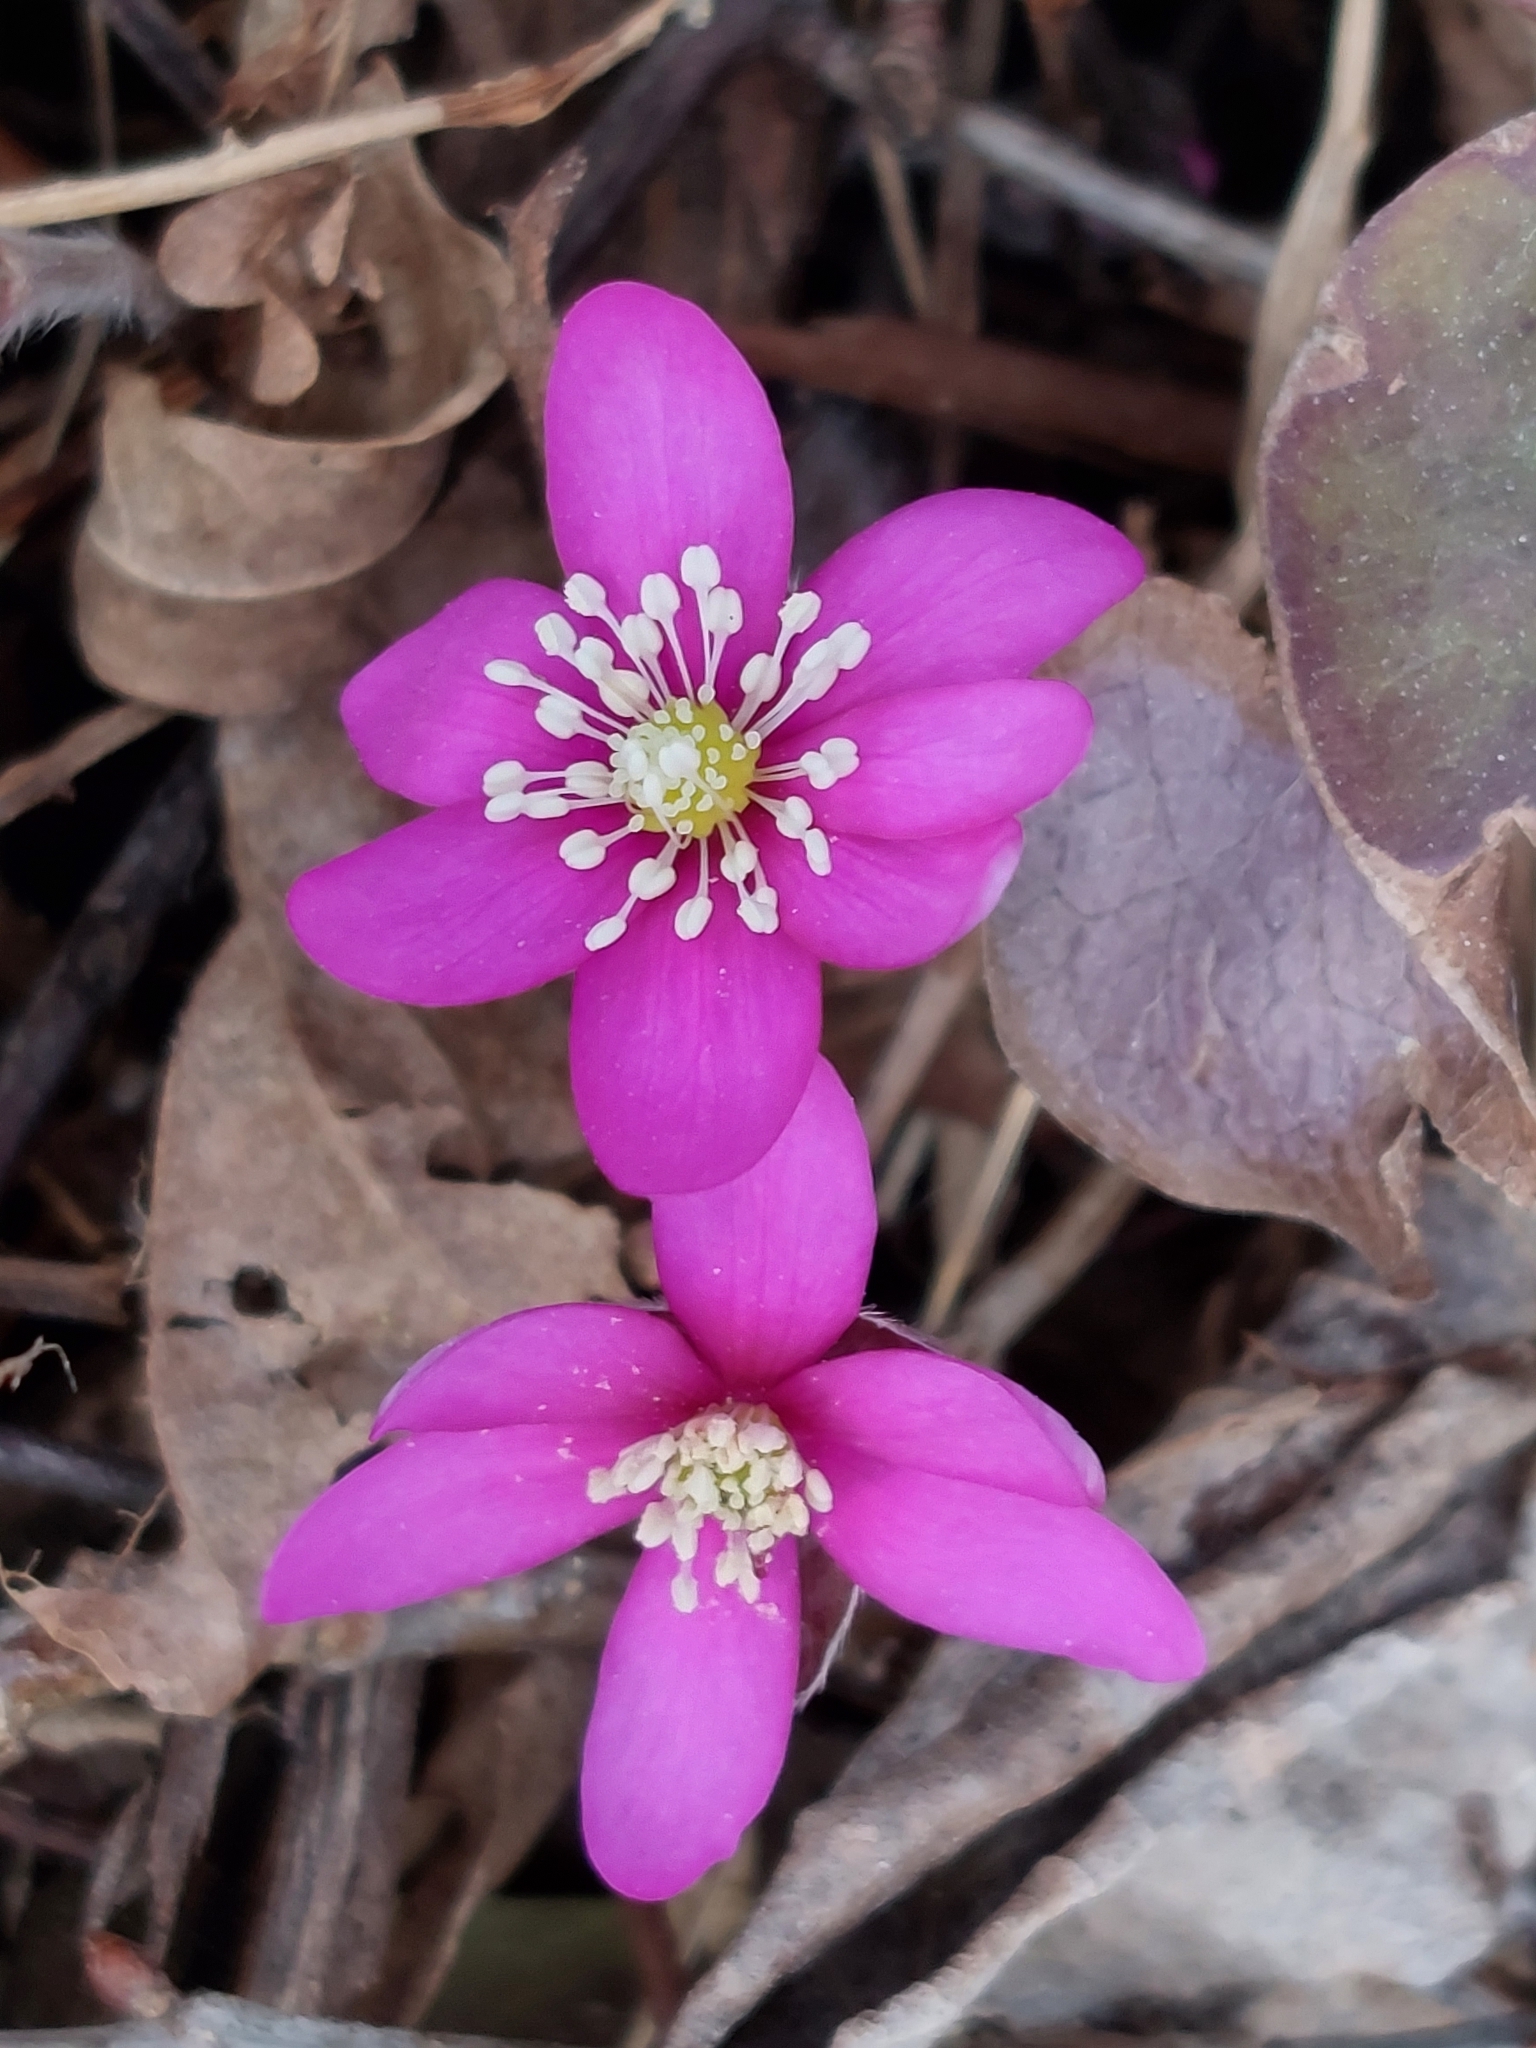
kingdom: Plantae
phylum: Tracheophyta
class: Magnoliopsida
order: Ranunculales
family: Ranunculaceae
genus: Hepatica
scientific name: Hepatica nobilis
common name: Liverleaf
